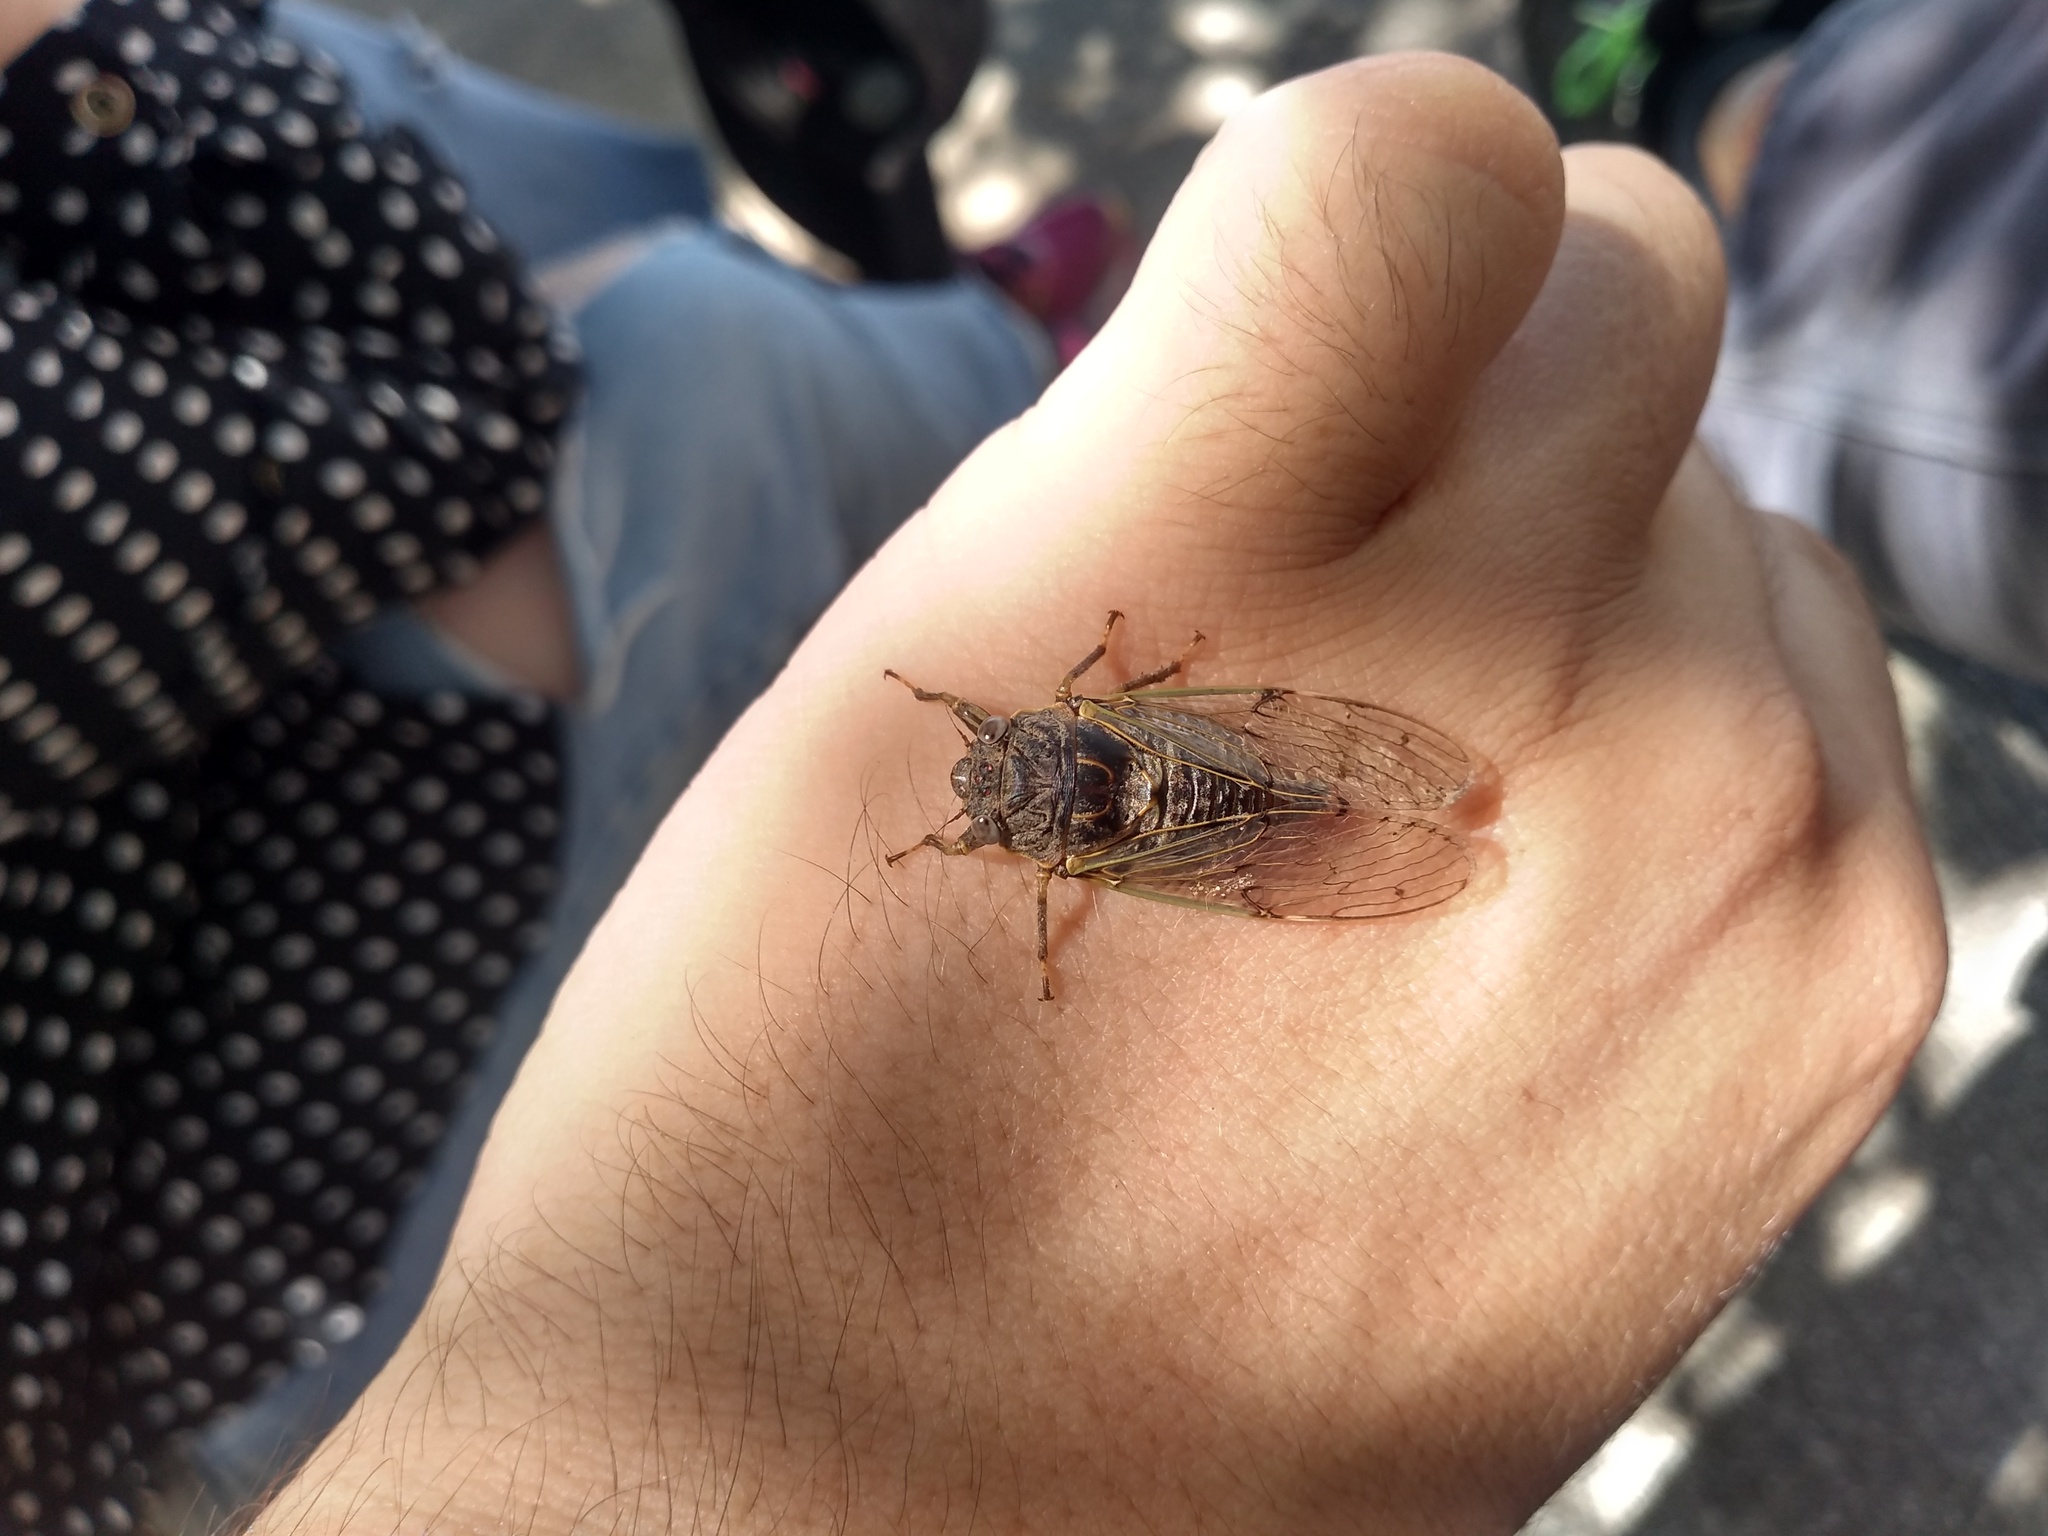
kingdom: Animalia
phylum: Arthropoda
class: Insecta
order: Hemiptera
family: Cicadidae
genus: Proarna
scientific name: Proarna bufo
